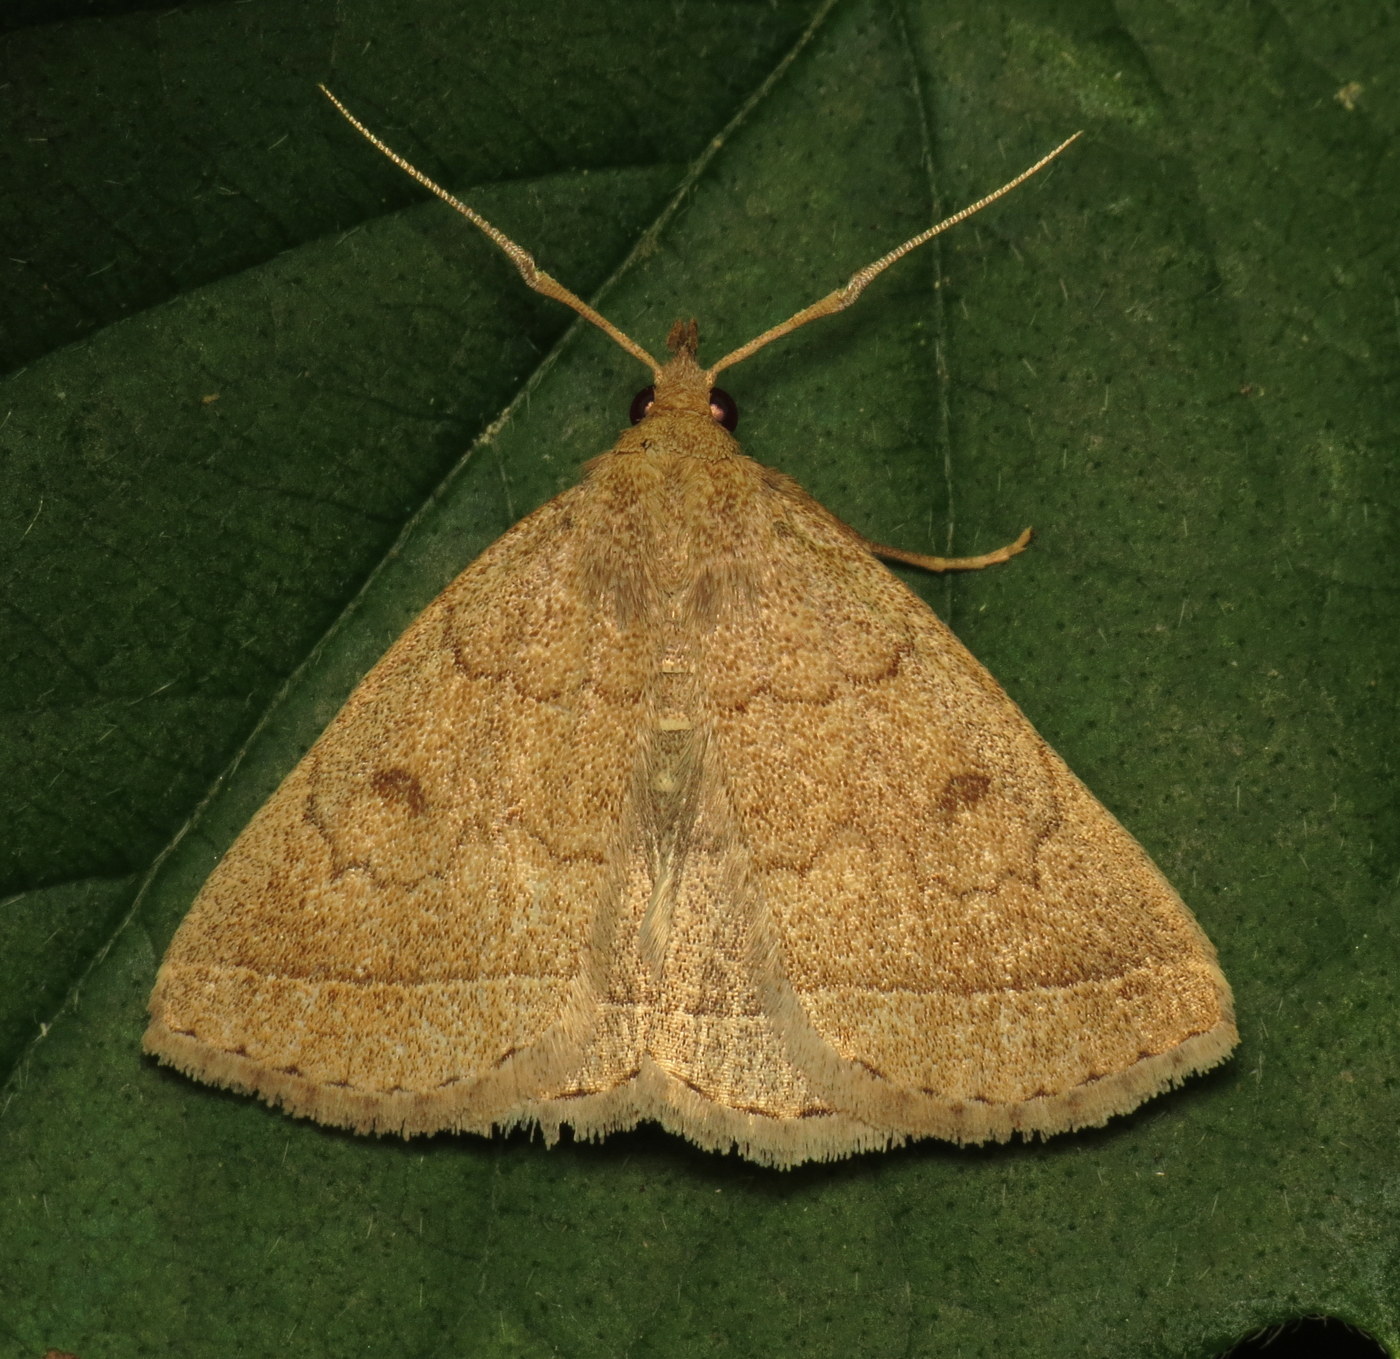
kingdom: Animalia
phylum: Arthropoda
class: Insecta
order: Lepidoptera
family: Erebidae
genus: Zanclognatha
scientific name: Zanclognatha jacchusalis
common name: Yellowish zanclognatha
